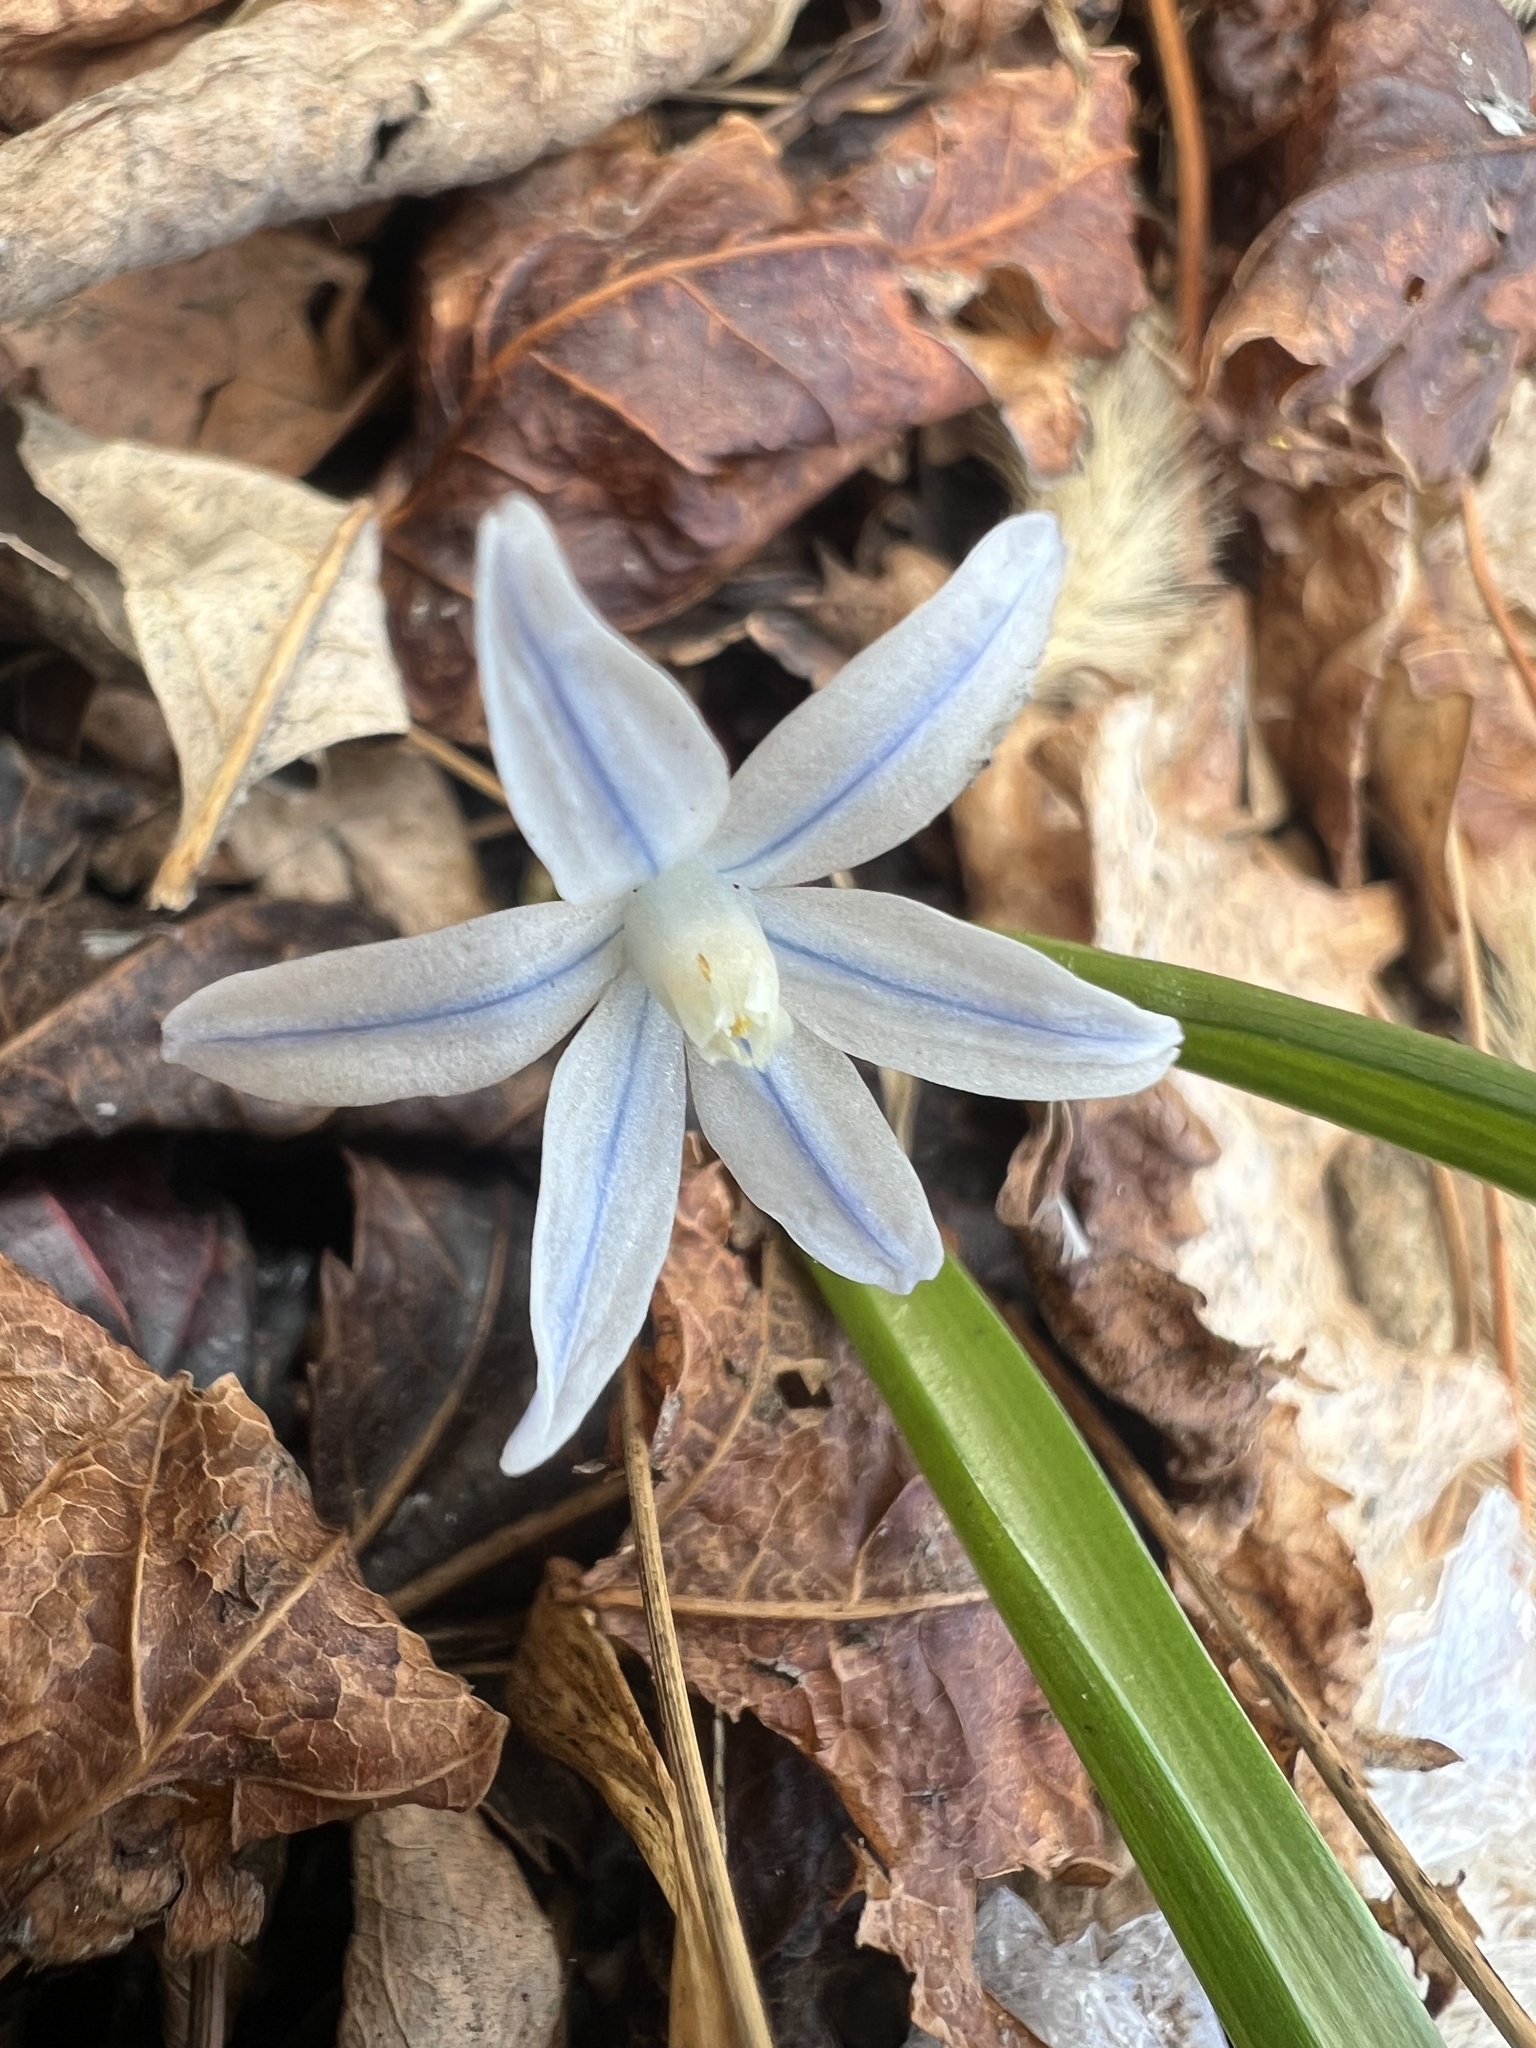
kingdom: Plantae
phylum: Tracheophyta
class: Liliopsida
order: Asparagales
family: Asparagaceae
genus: Puschkinia
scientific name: Puschkinia scilloides
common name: Striped squill
